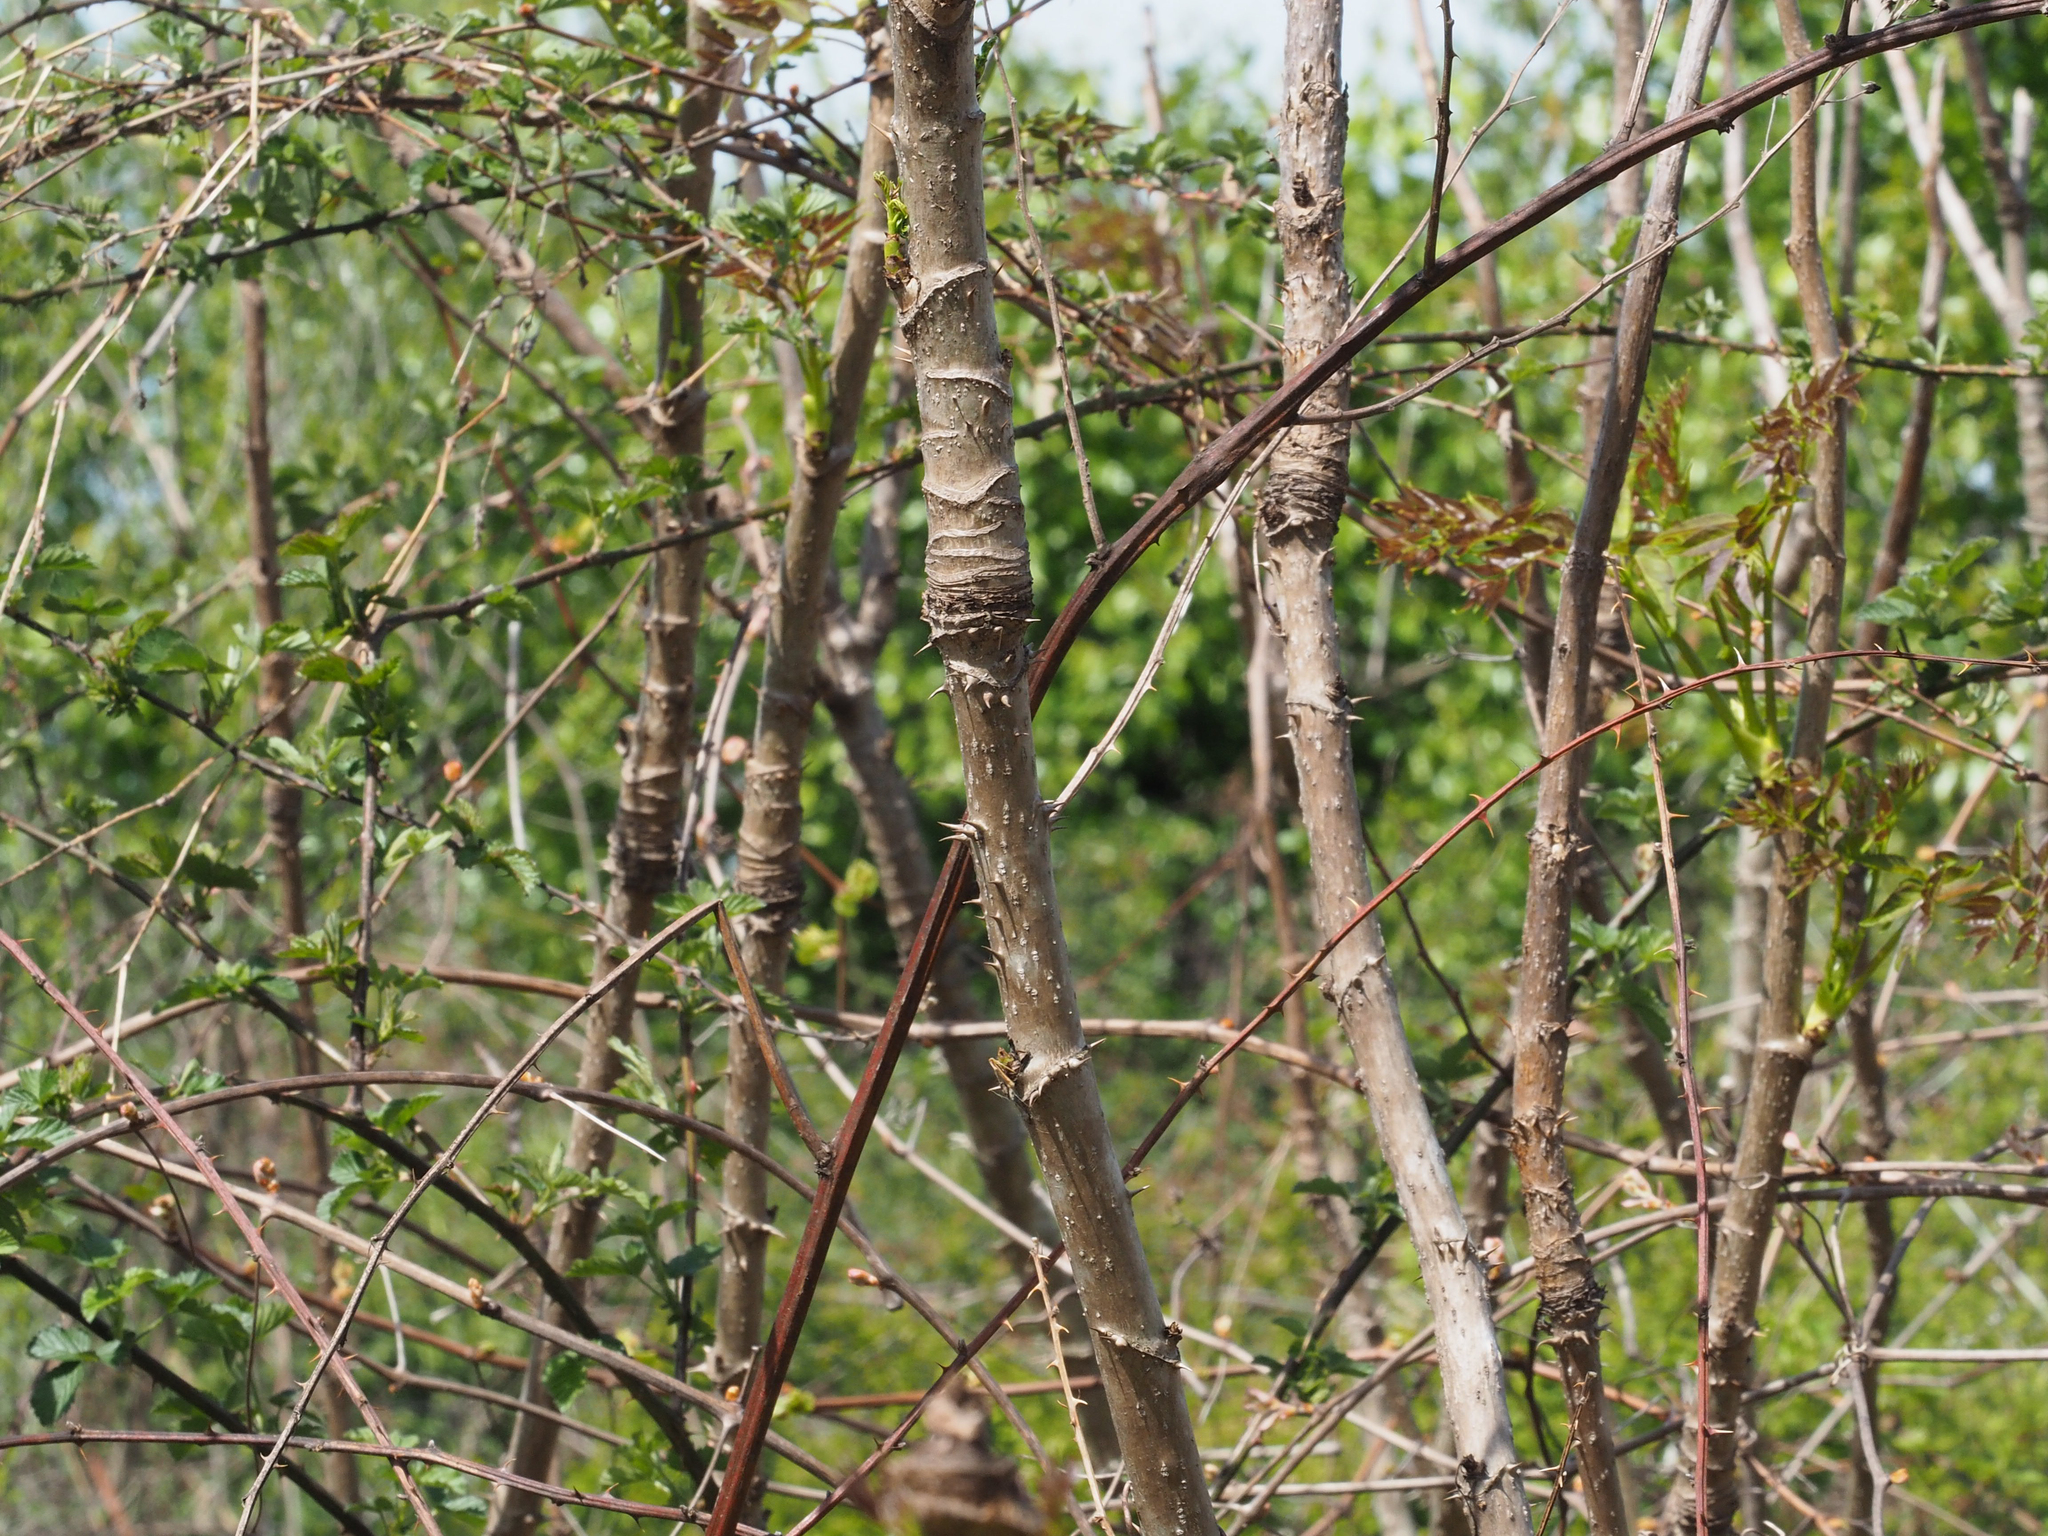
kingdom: Plantae
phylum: Tracheophyta
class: Magnoliopsida
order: Apiales
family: Araliaceae
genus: Aralia
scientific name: Aralia spinosa
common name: Hercules'-club
